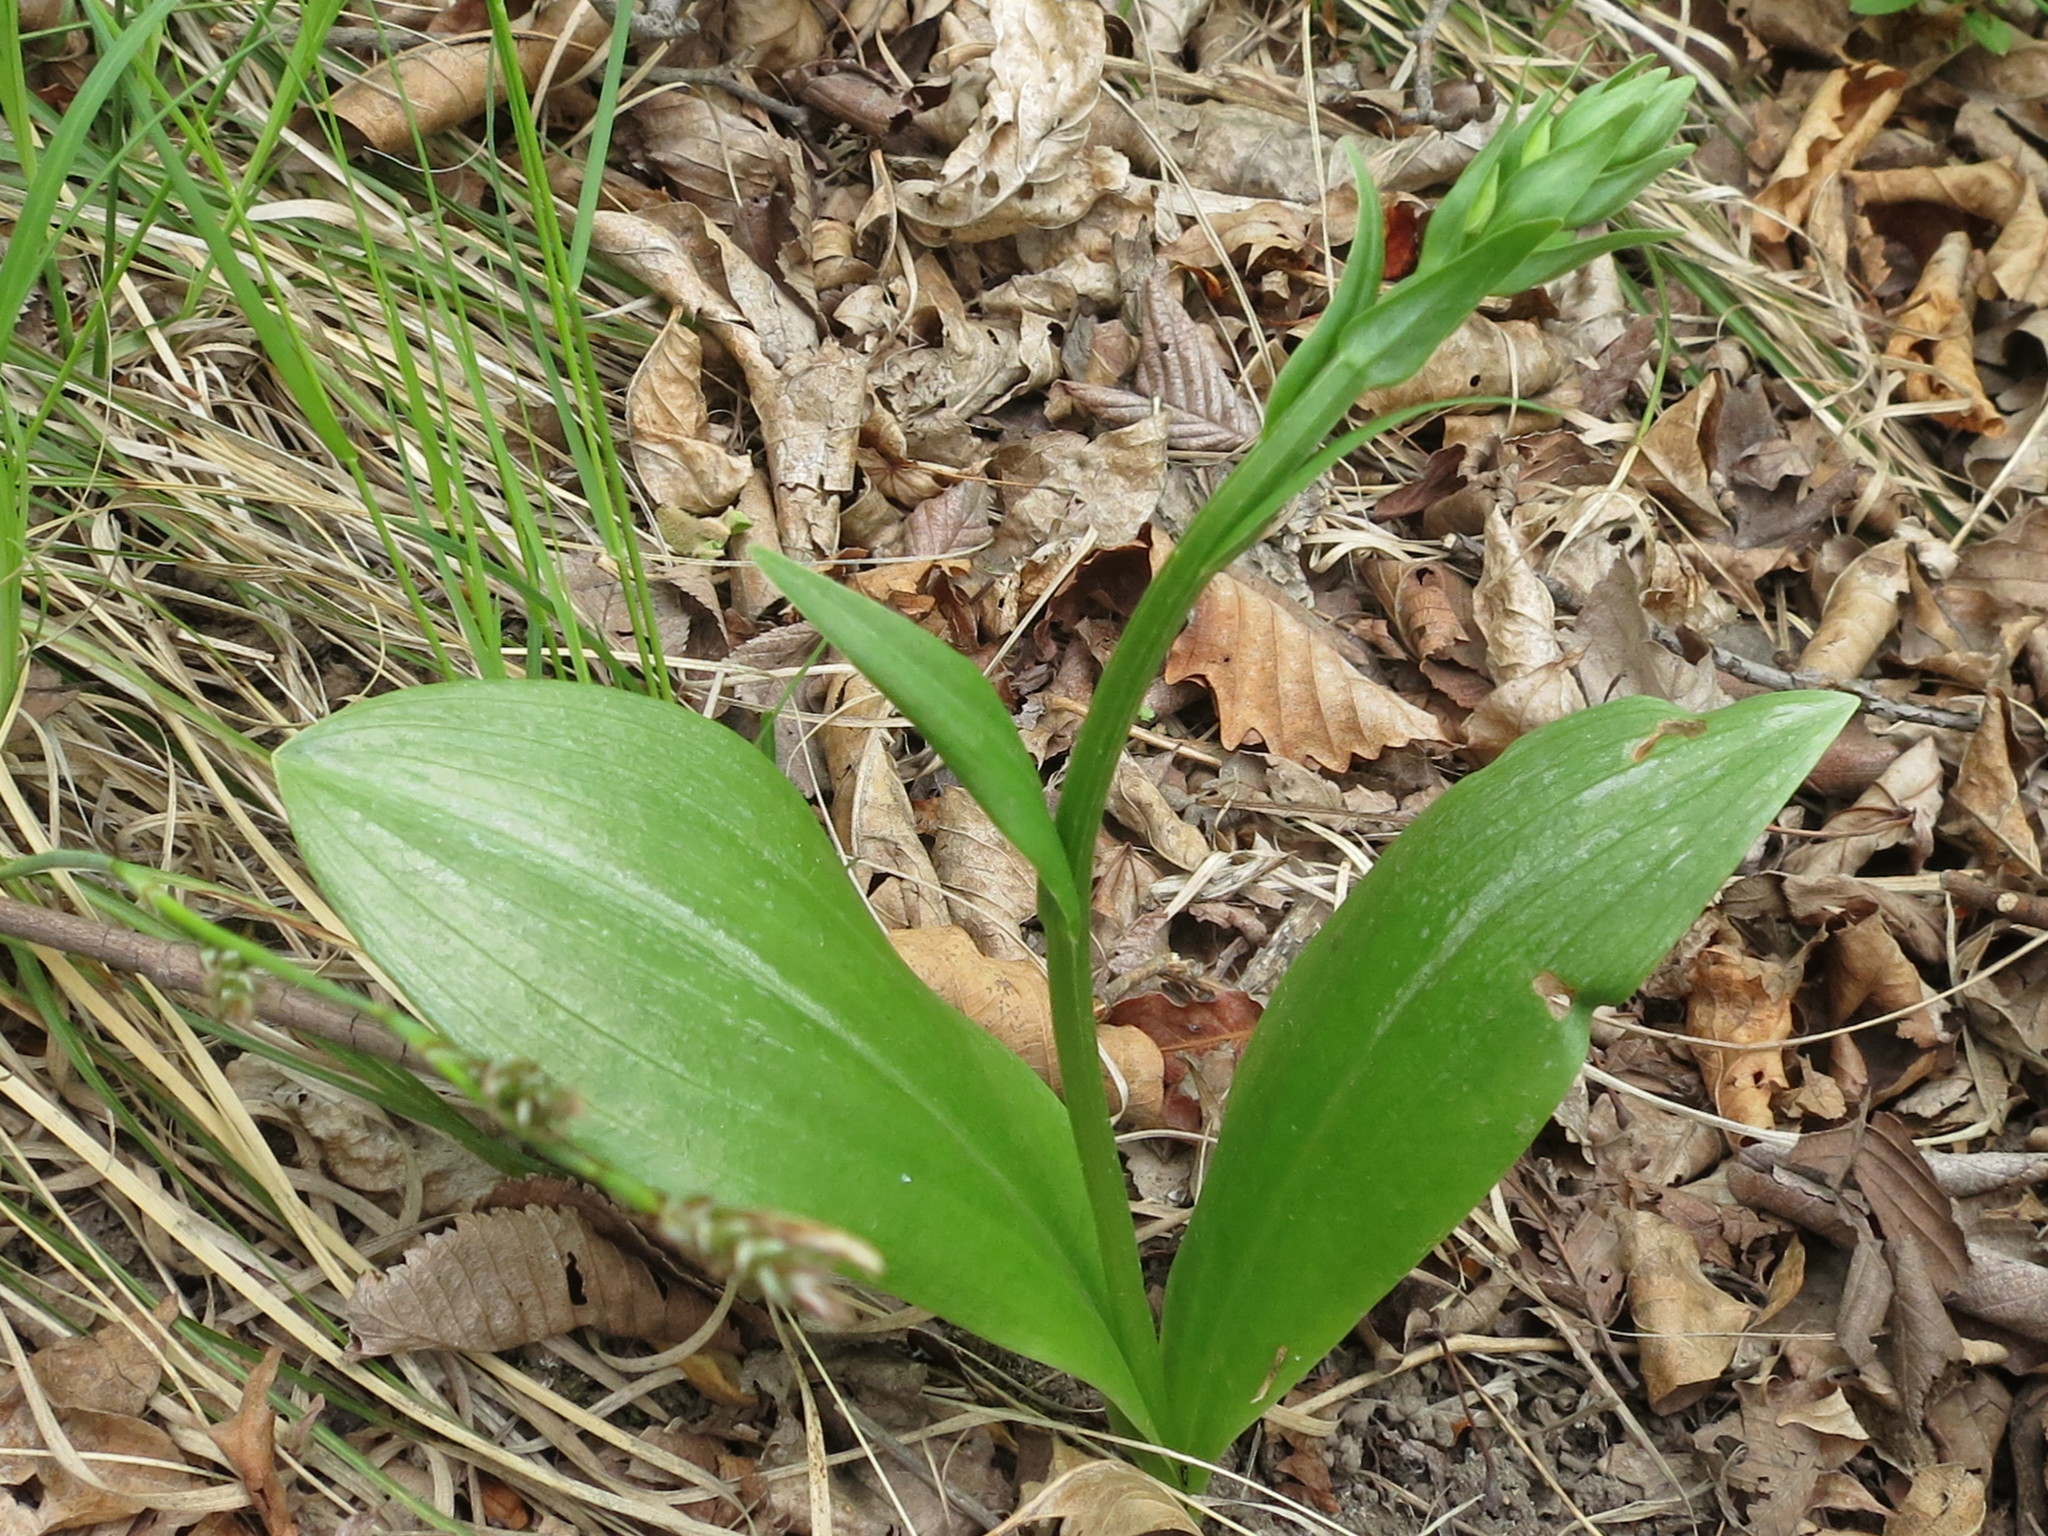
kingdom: Plantae
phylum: Tracheophyta
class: Liliopsida
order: Asparagales
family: Orchidaceae
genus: Platanthera
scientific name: Platanthera densa
